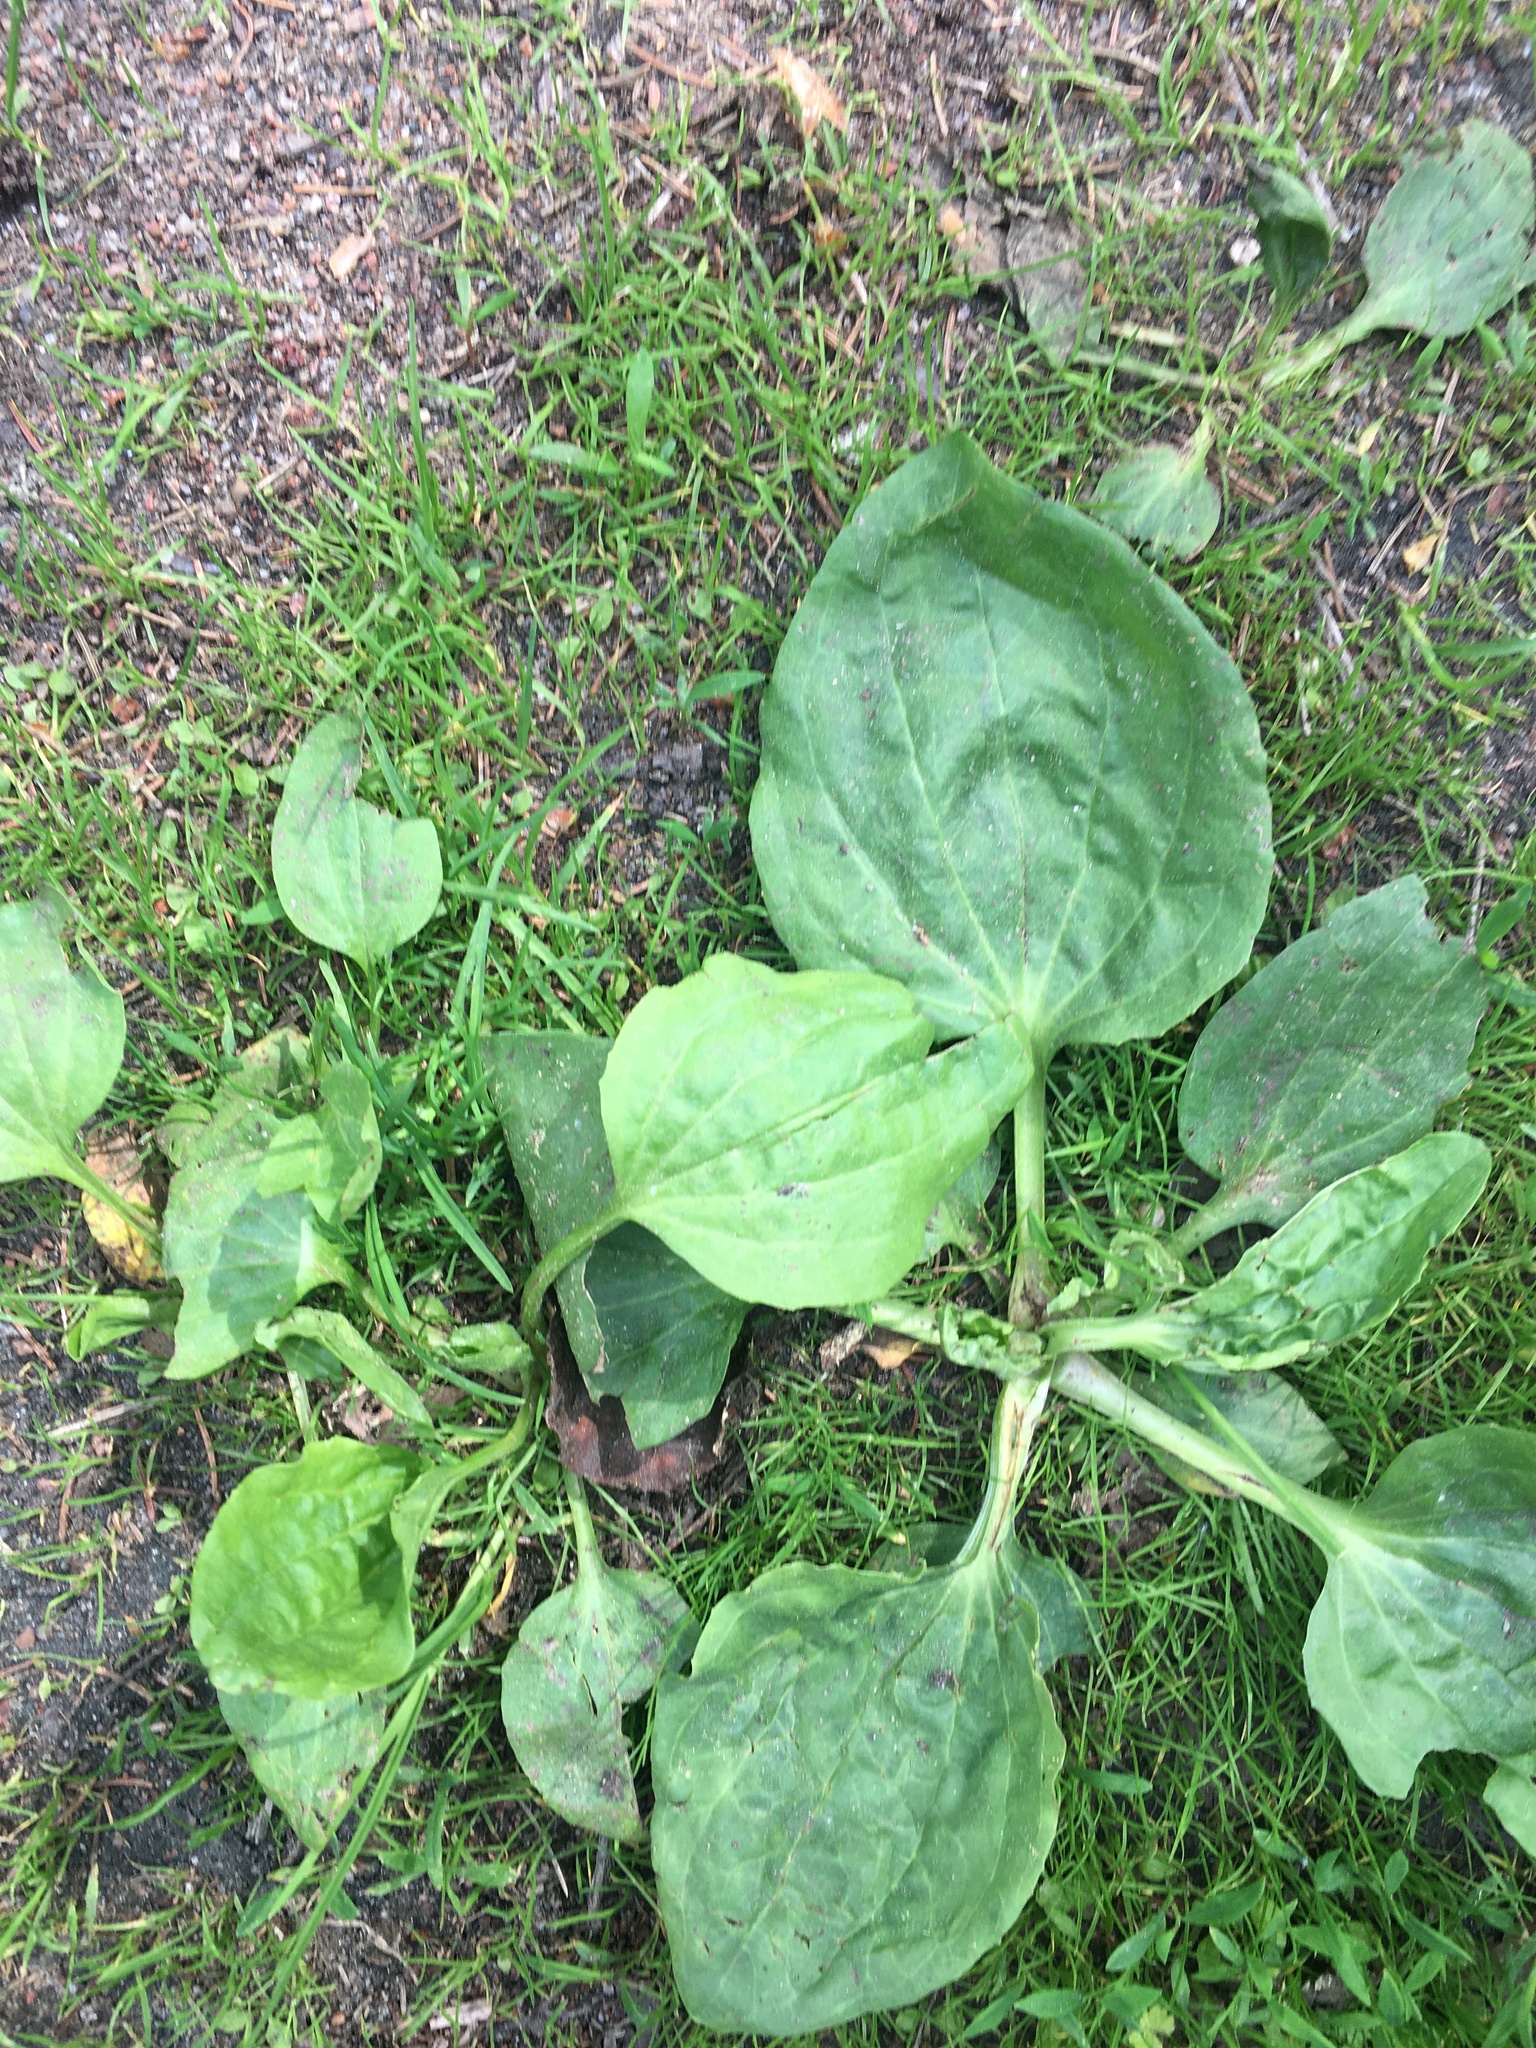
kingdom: Plantae
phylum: Tracheophyta
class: Magnoliopsida
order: Lamiales
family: Plantaginaceae
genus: Plantago
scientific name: Plantago major
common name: Common plantain
